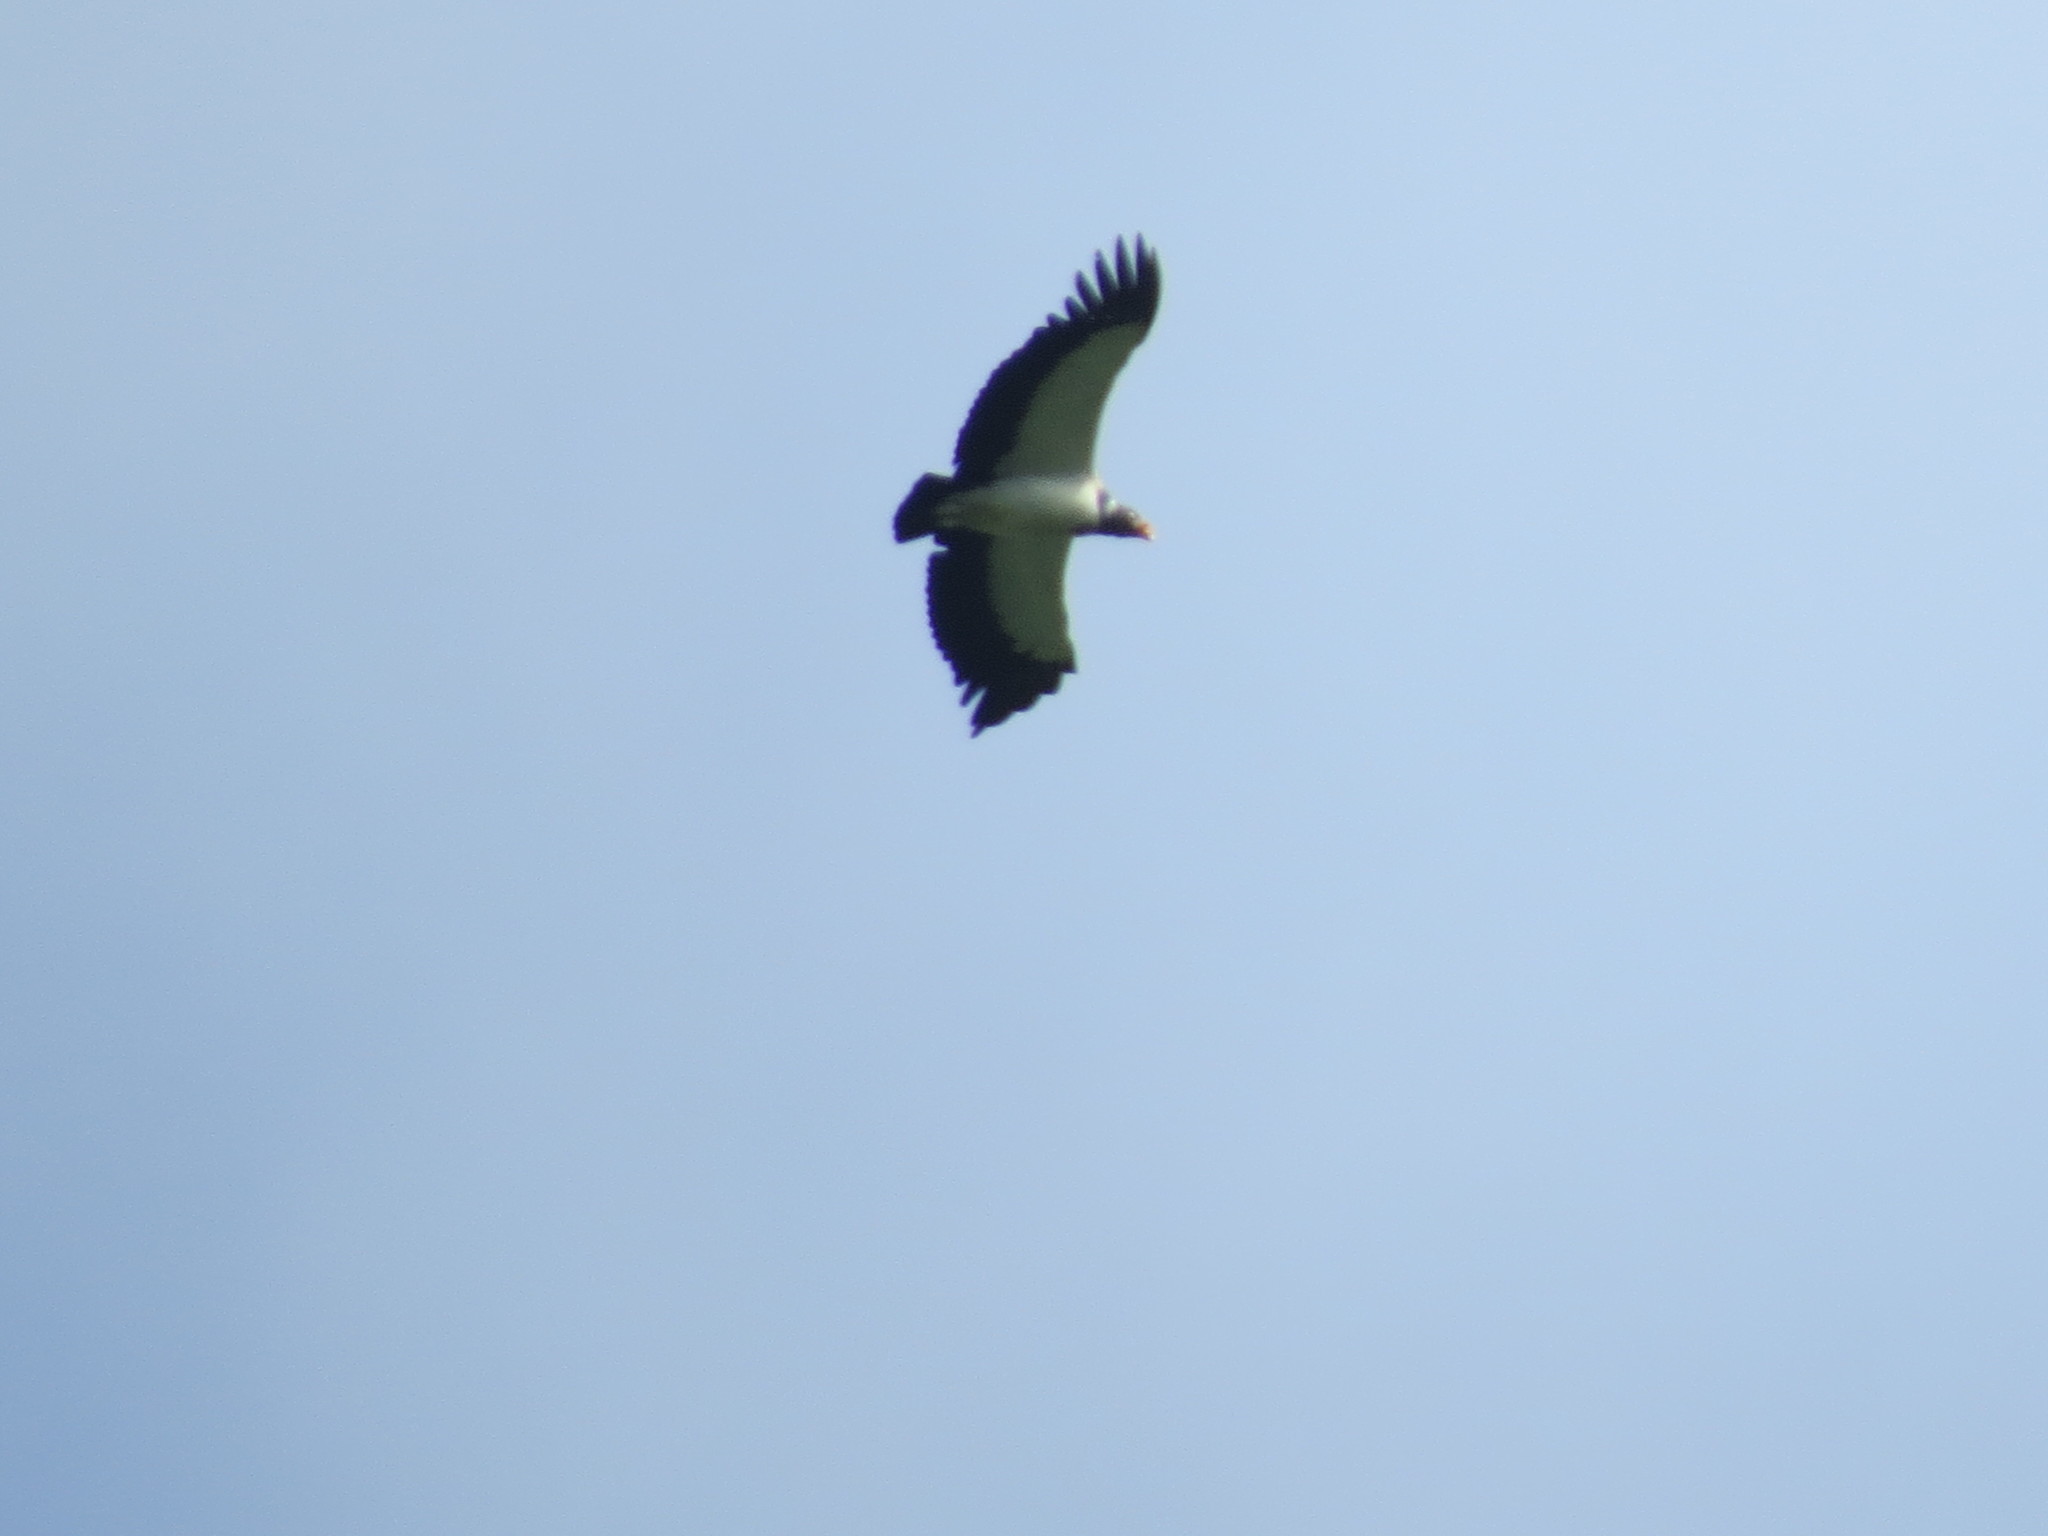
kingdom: Animalia
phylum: Chordata
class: Aves
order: Accipitriformes
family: Cathartidae
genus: Sarcoramphus
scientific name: Sarcoramphus papa
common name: King vulture
